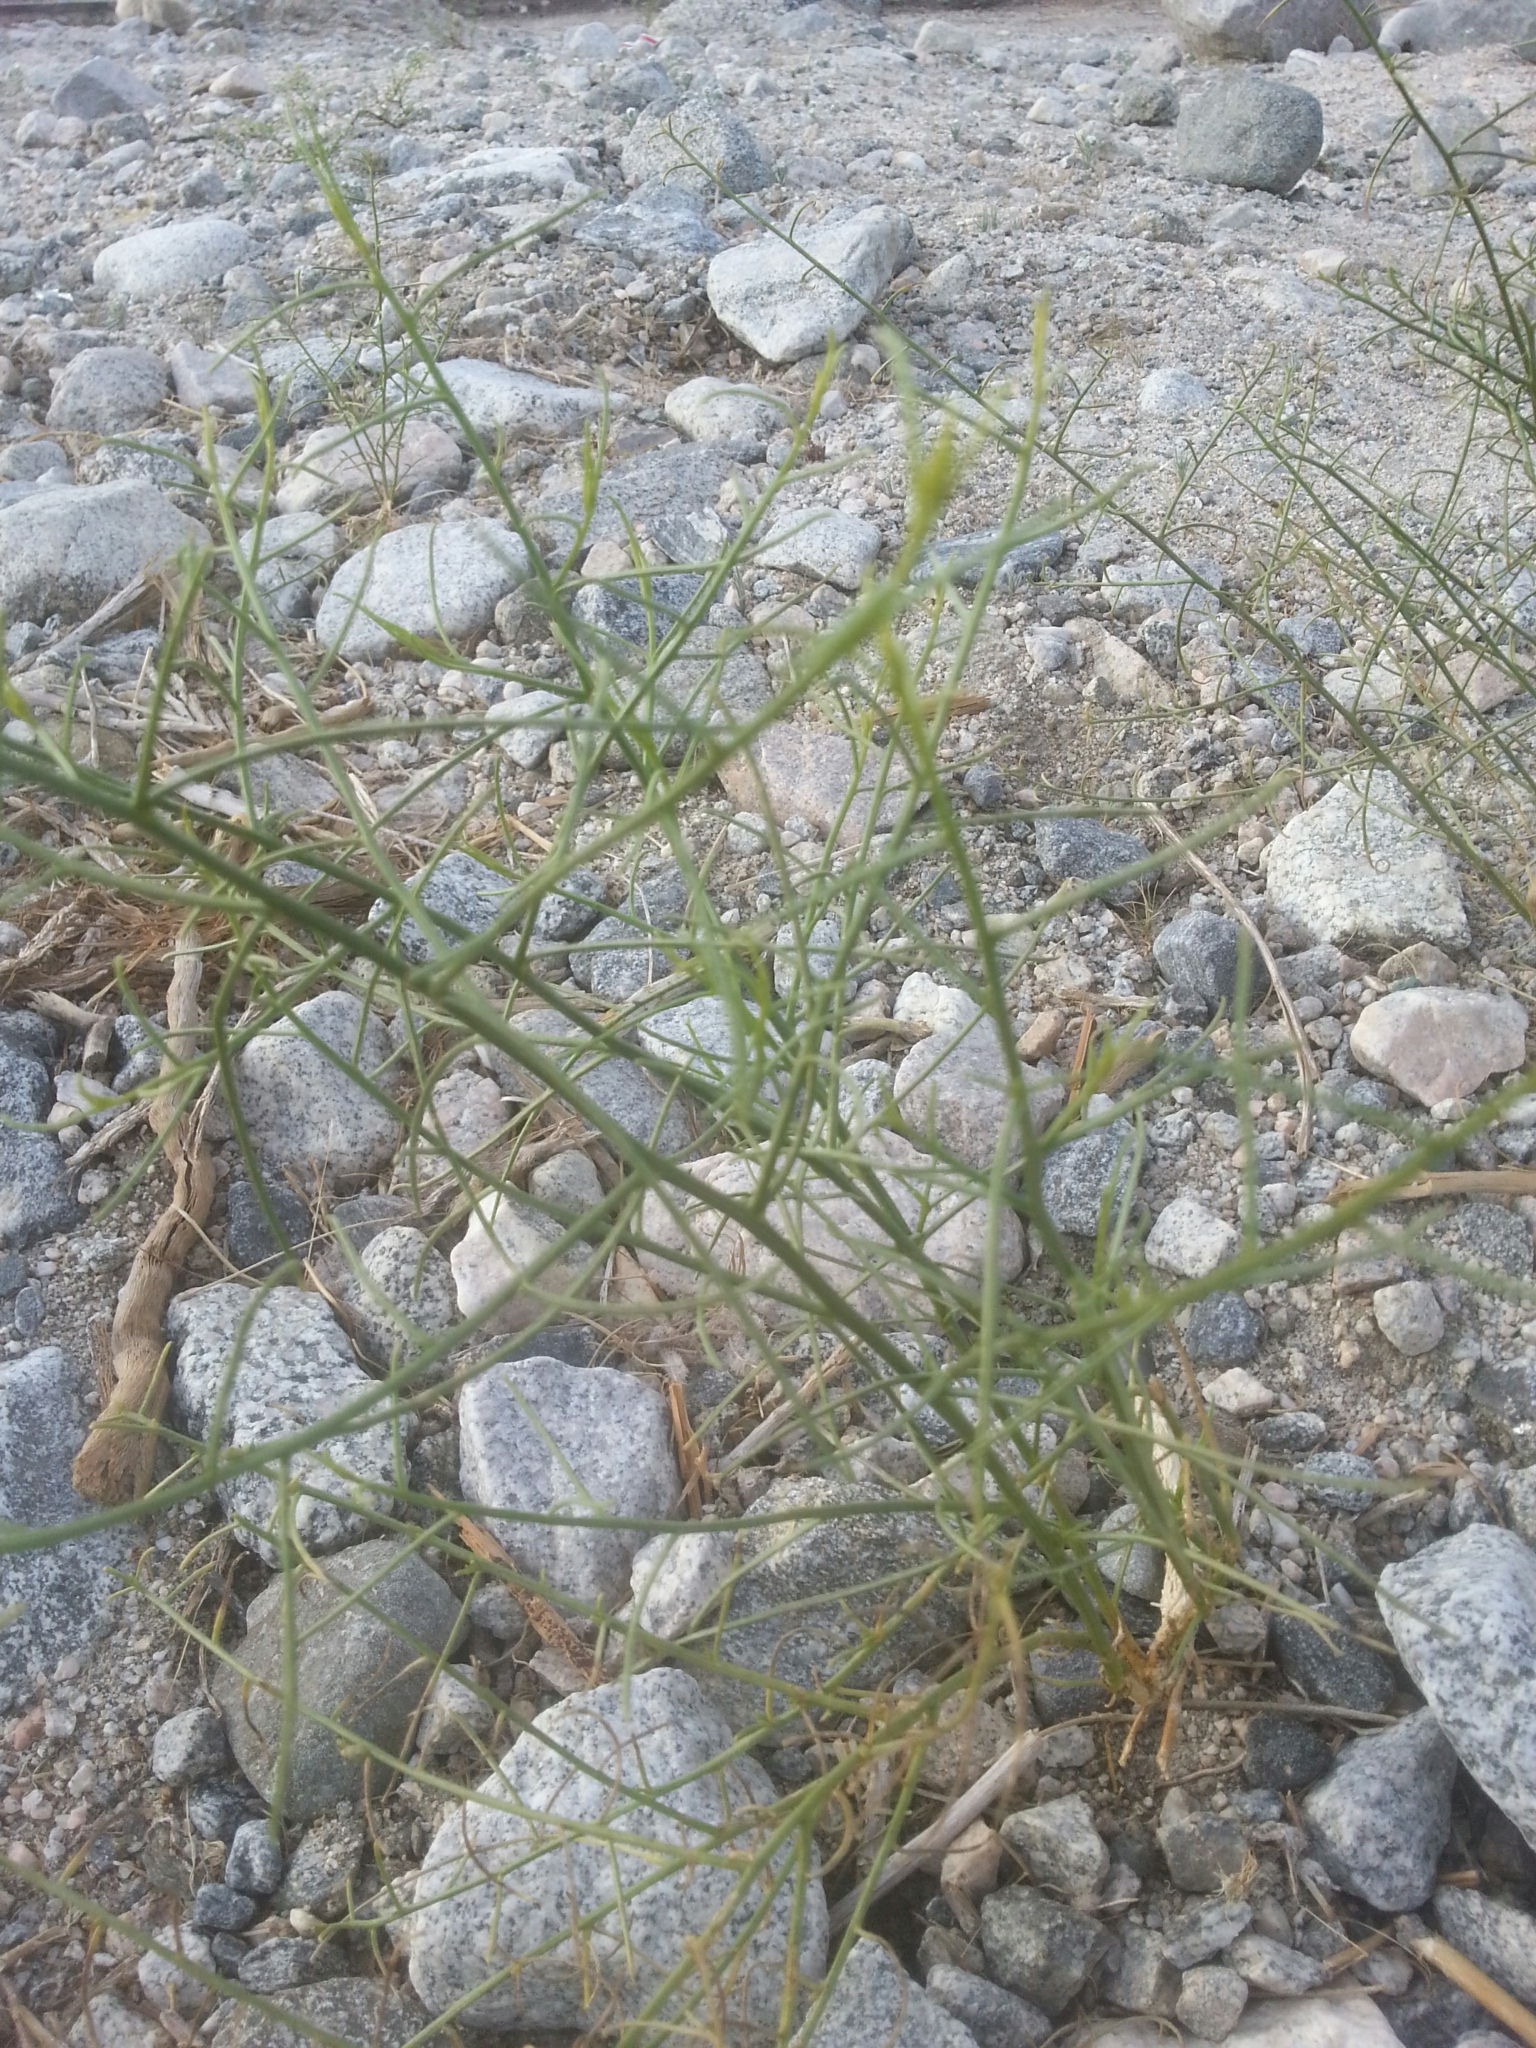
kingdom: Plantae
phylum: Tracheophyta
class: Magnoliopsida
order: Asterales
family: Asteraceae
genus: Ambrosia
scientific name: Ambrosia salsola
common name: Burrobrush
